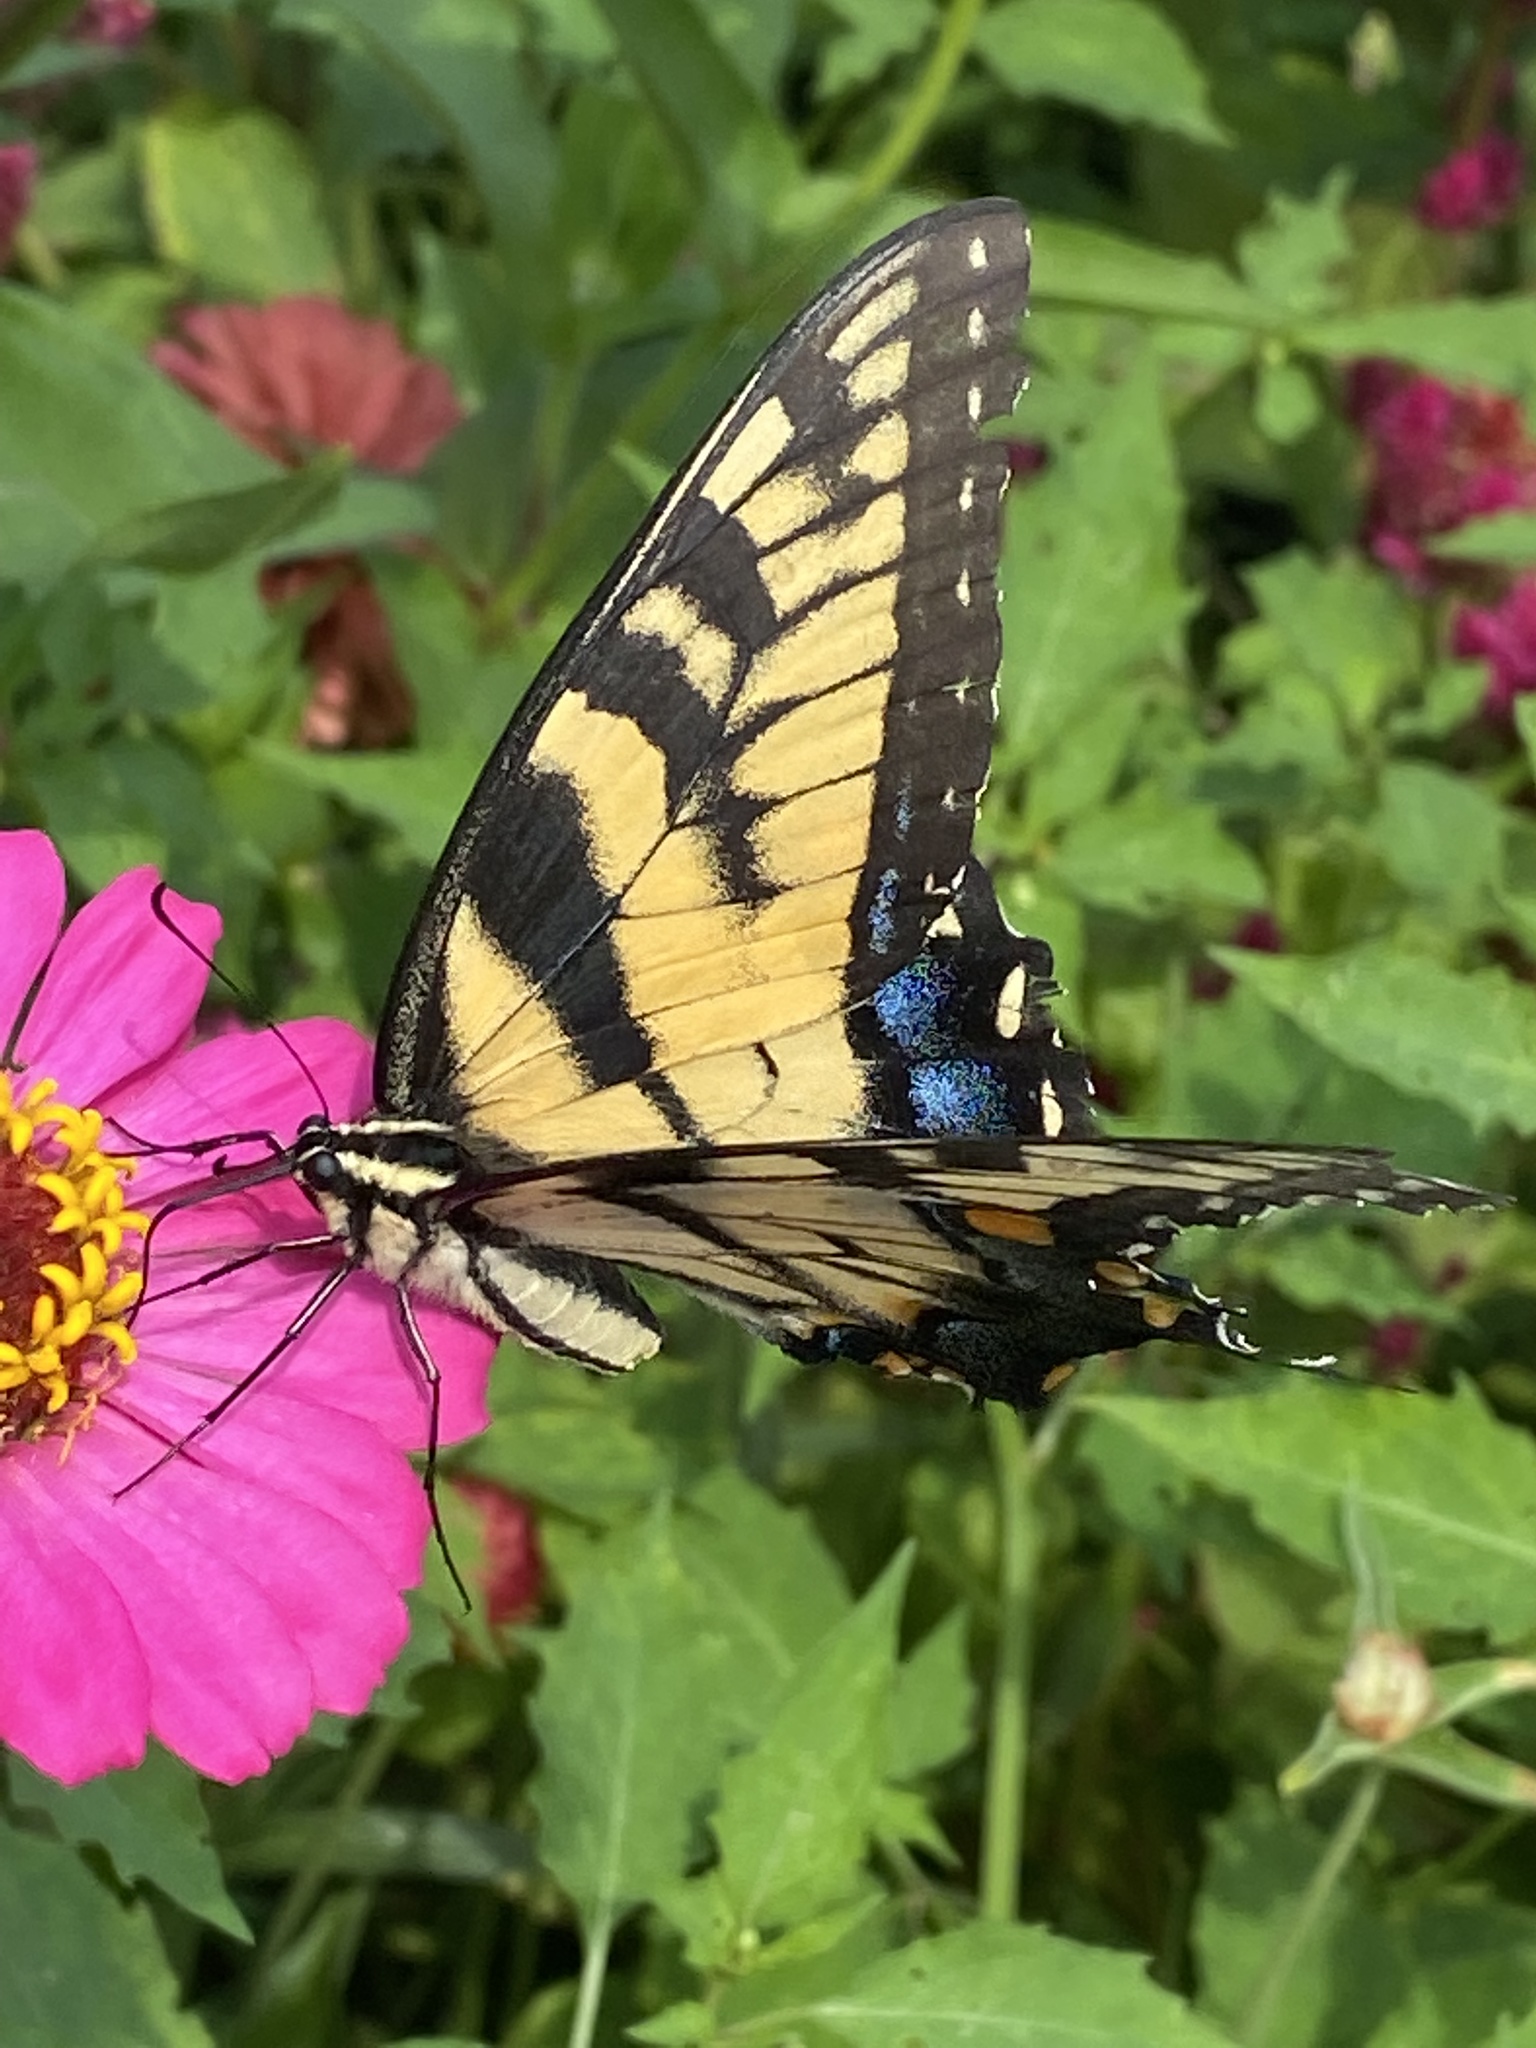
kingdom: Animalia
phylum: Arthropoda
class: Insecta
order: Lepidoptera
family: Papilionidae
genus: Papilio
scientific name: Papilio glaucus
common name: Tiger swallowtail
